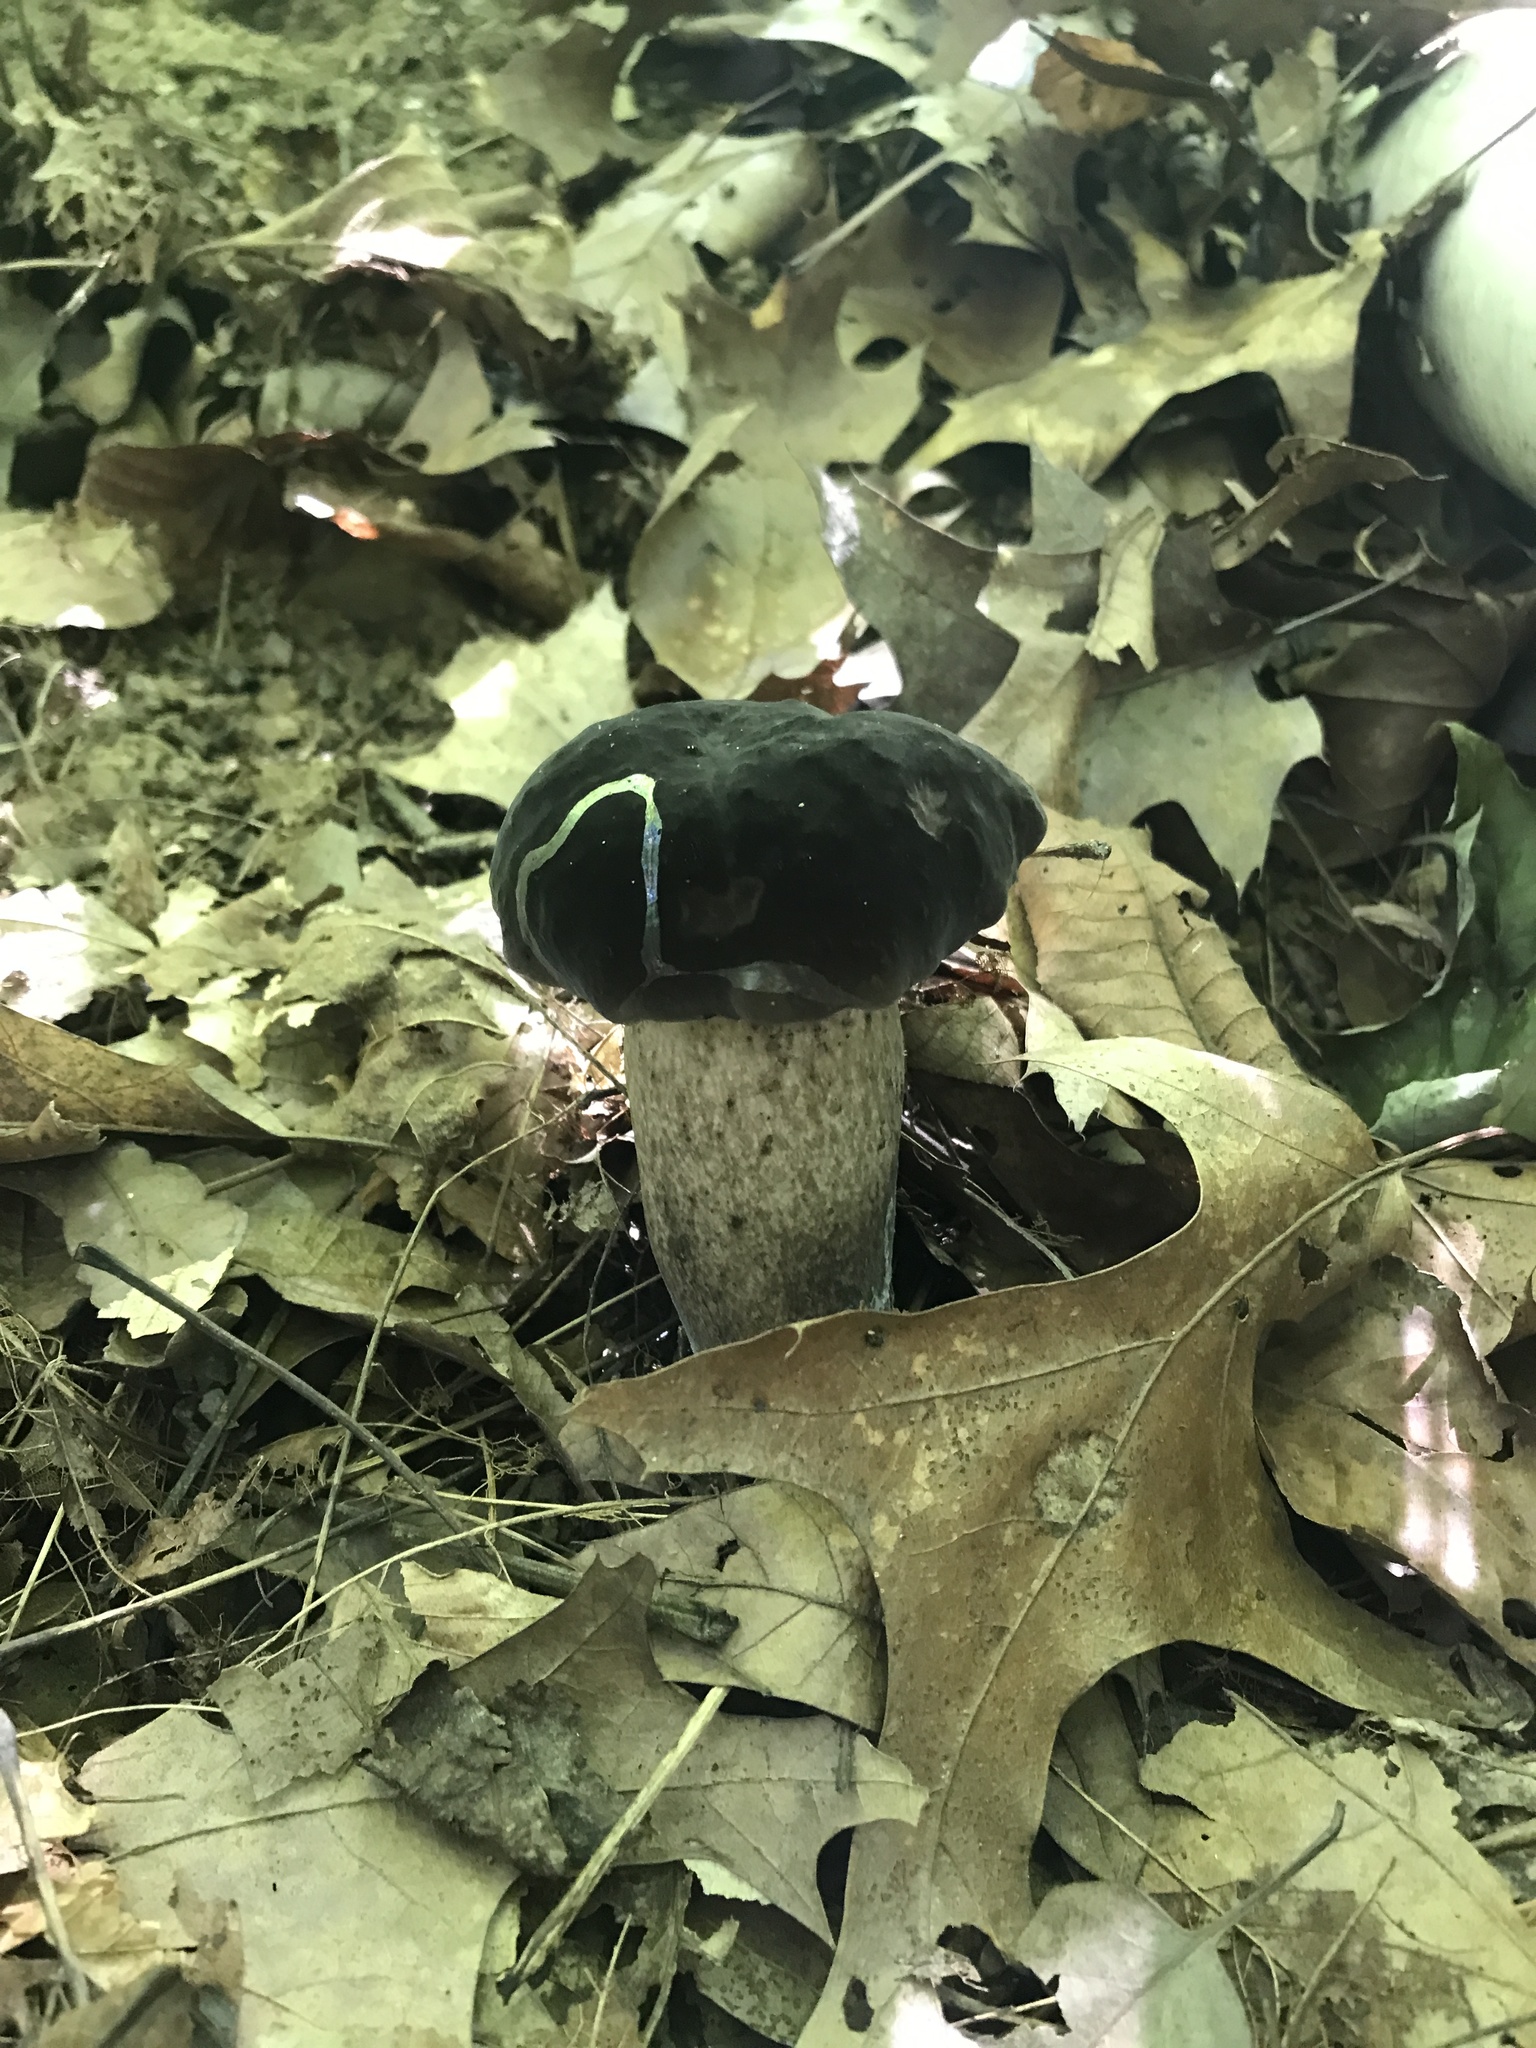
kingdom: Fungi
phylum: Basidiomycota
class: Agaricomycetes
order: Boletales
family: Boletaceae
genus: Tylopilus
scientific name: Tylopilus alboater
